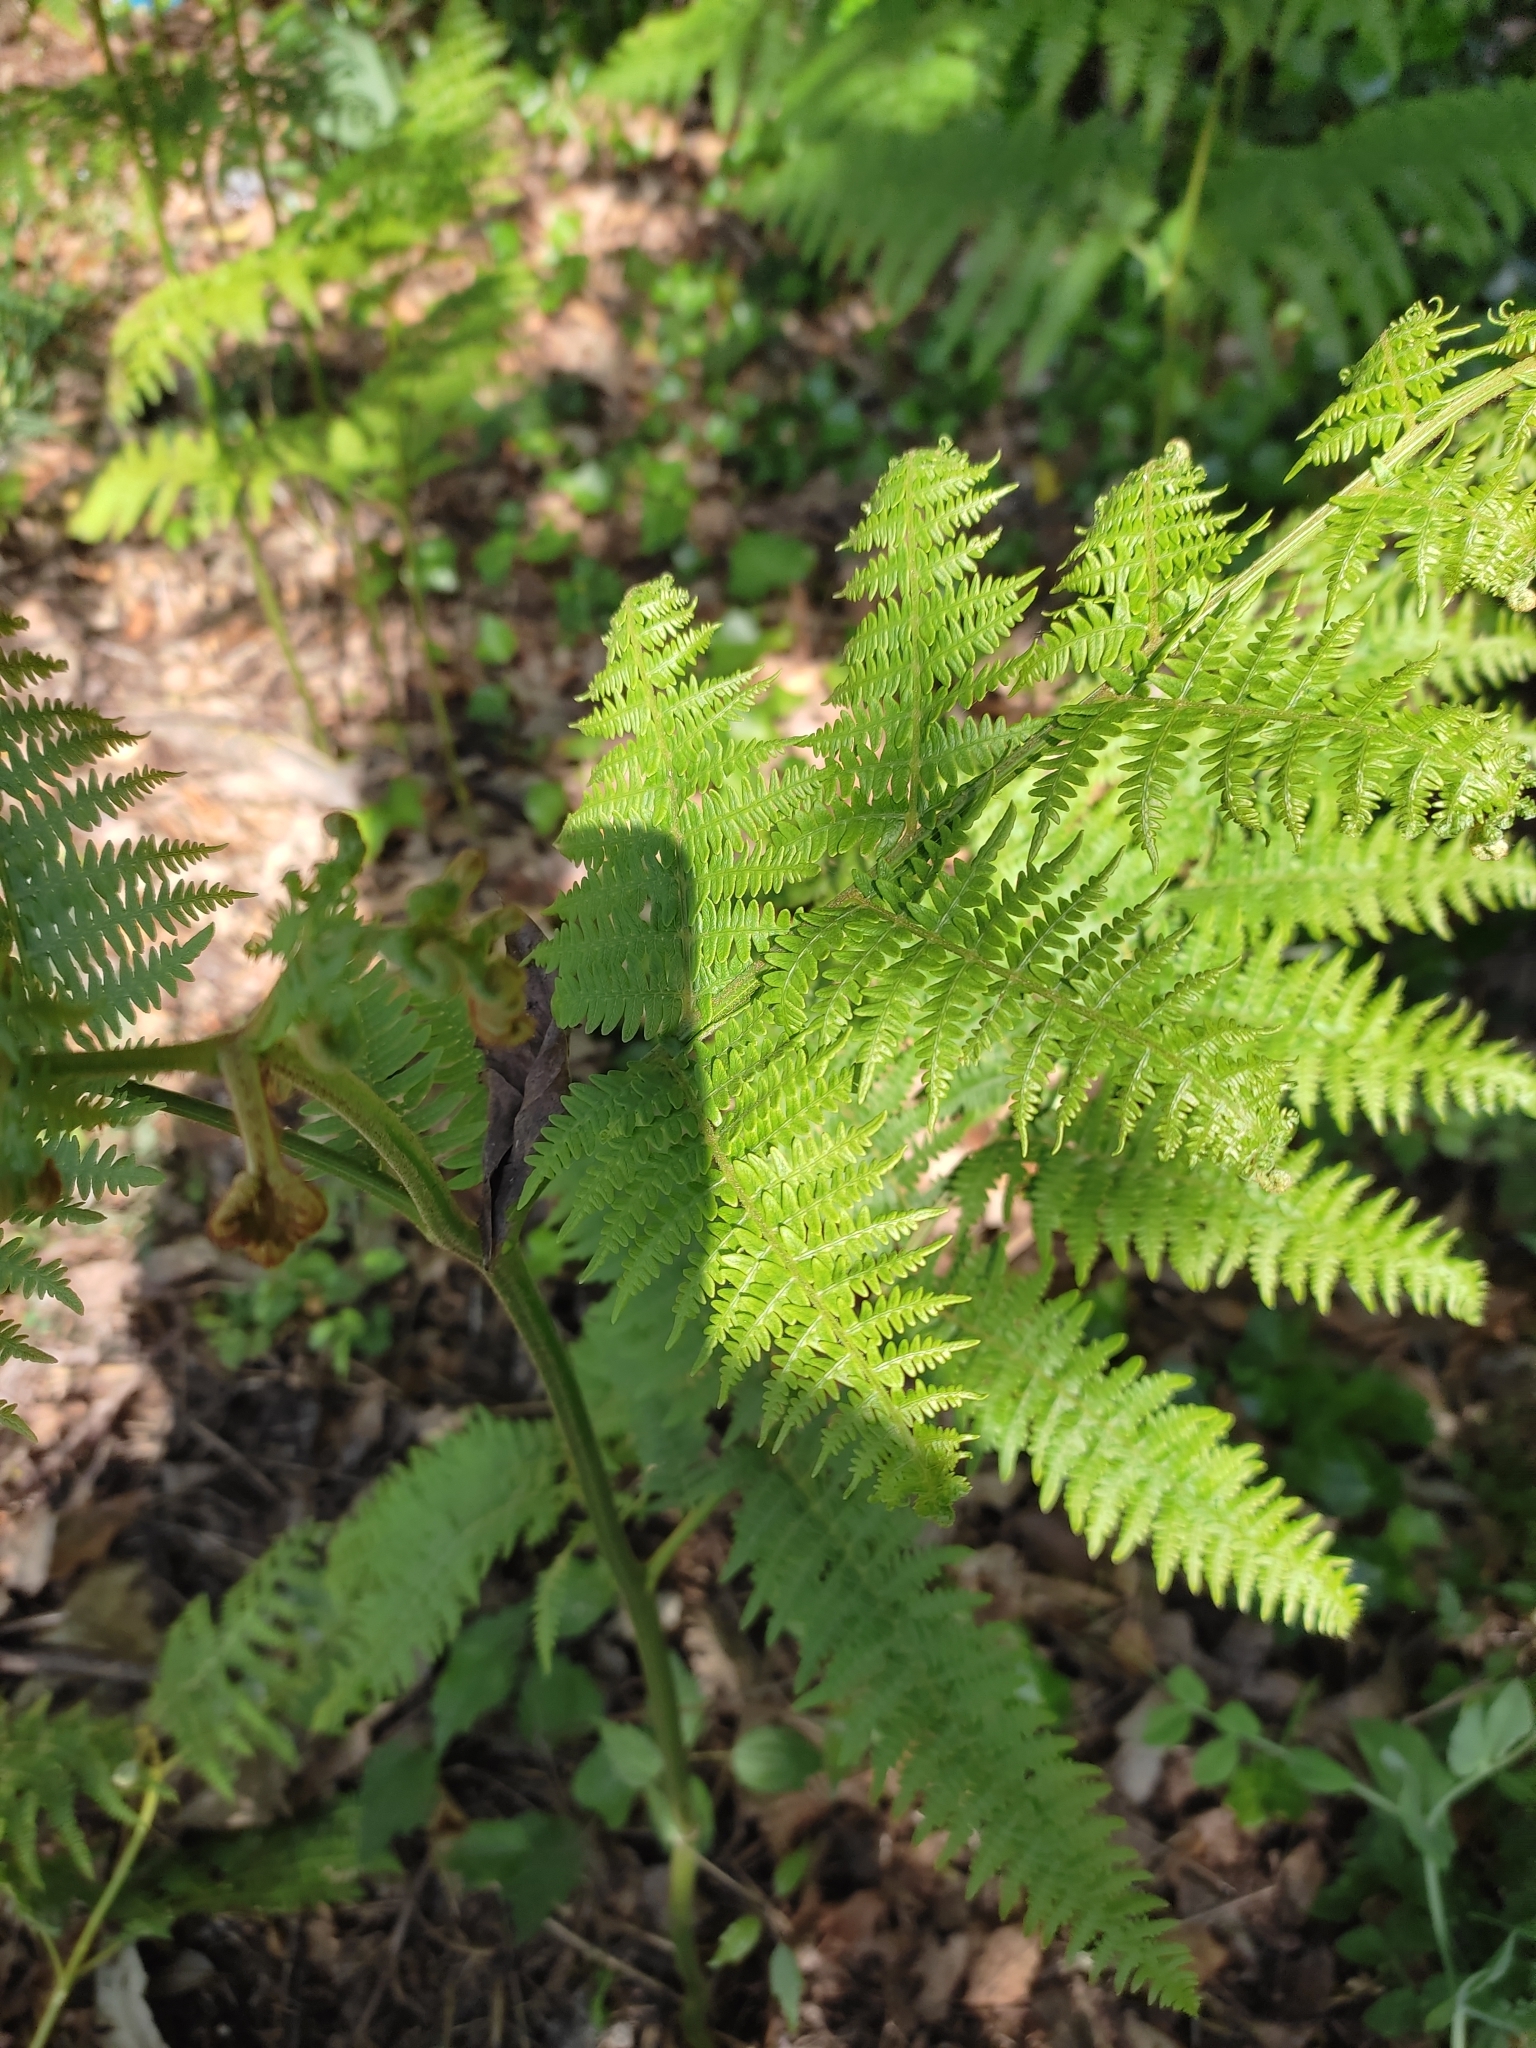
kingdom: Plantae
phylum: Tracheophyta
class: Polypodiopsida
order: Polypodiales
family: Dennstaedtiaceae
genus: Pteridium
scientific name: Pteridium aquilinum
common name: Bracken
